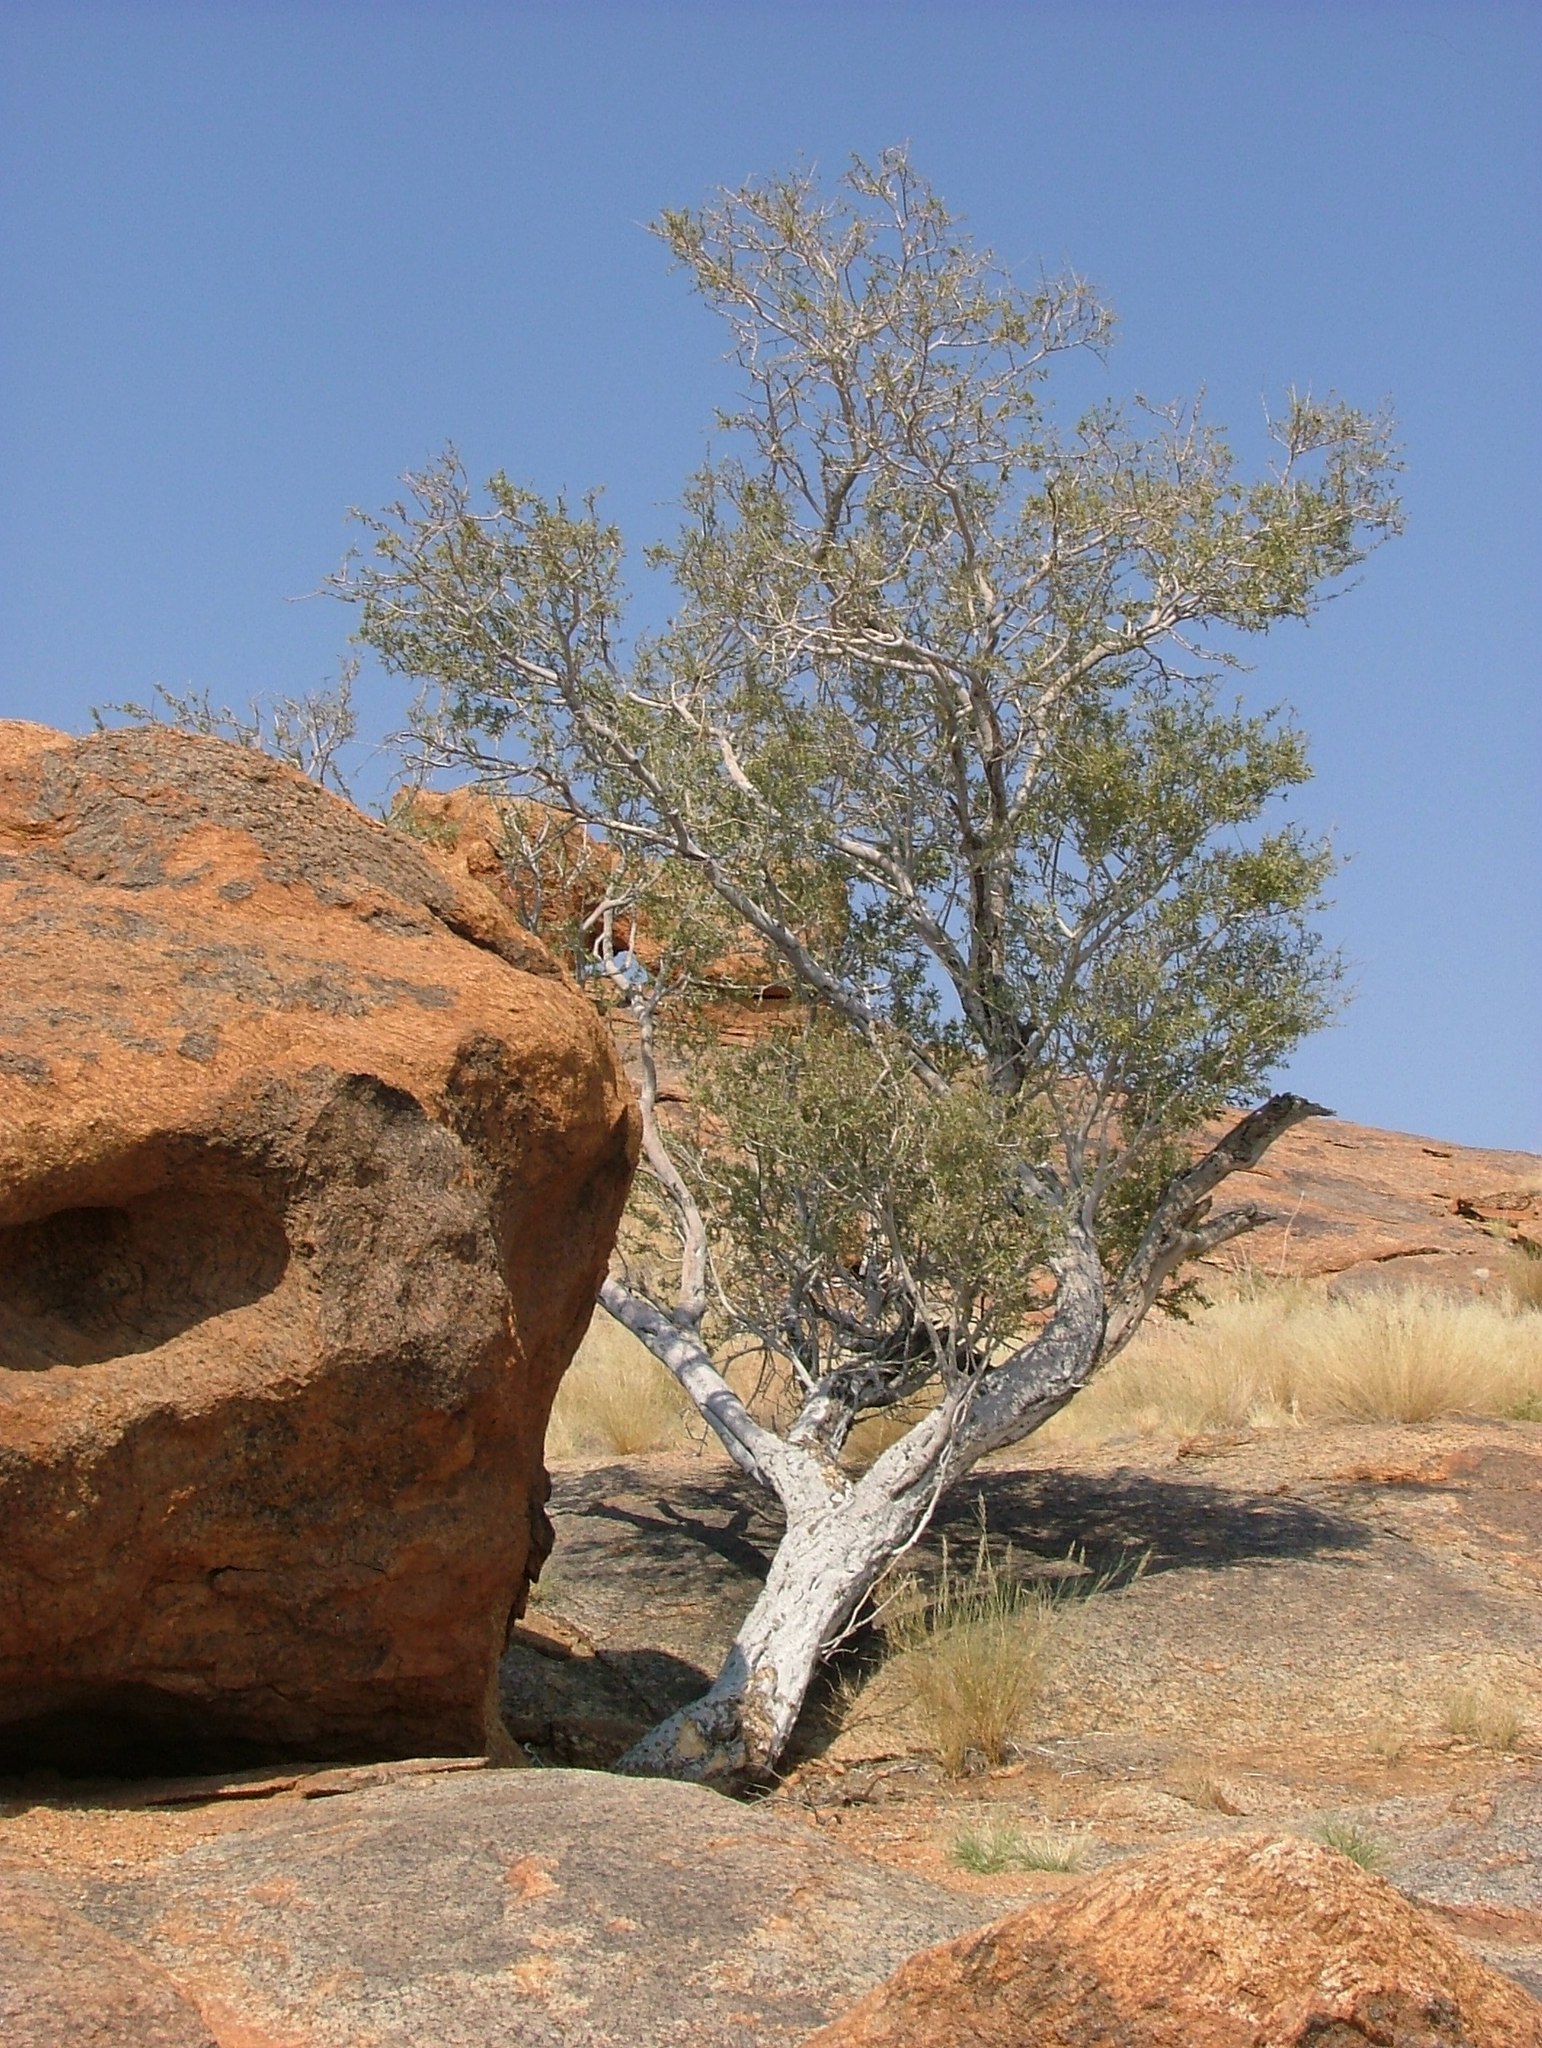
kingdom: Plantae
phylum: Tracheophyta
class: Magnoliopsida
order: Brassicales
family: Capparaceae
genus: Boscia
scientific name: Boscia albitrunca
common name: Caper bush
